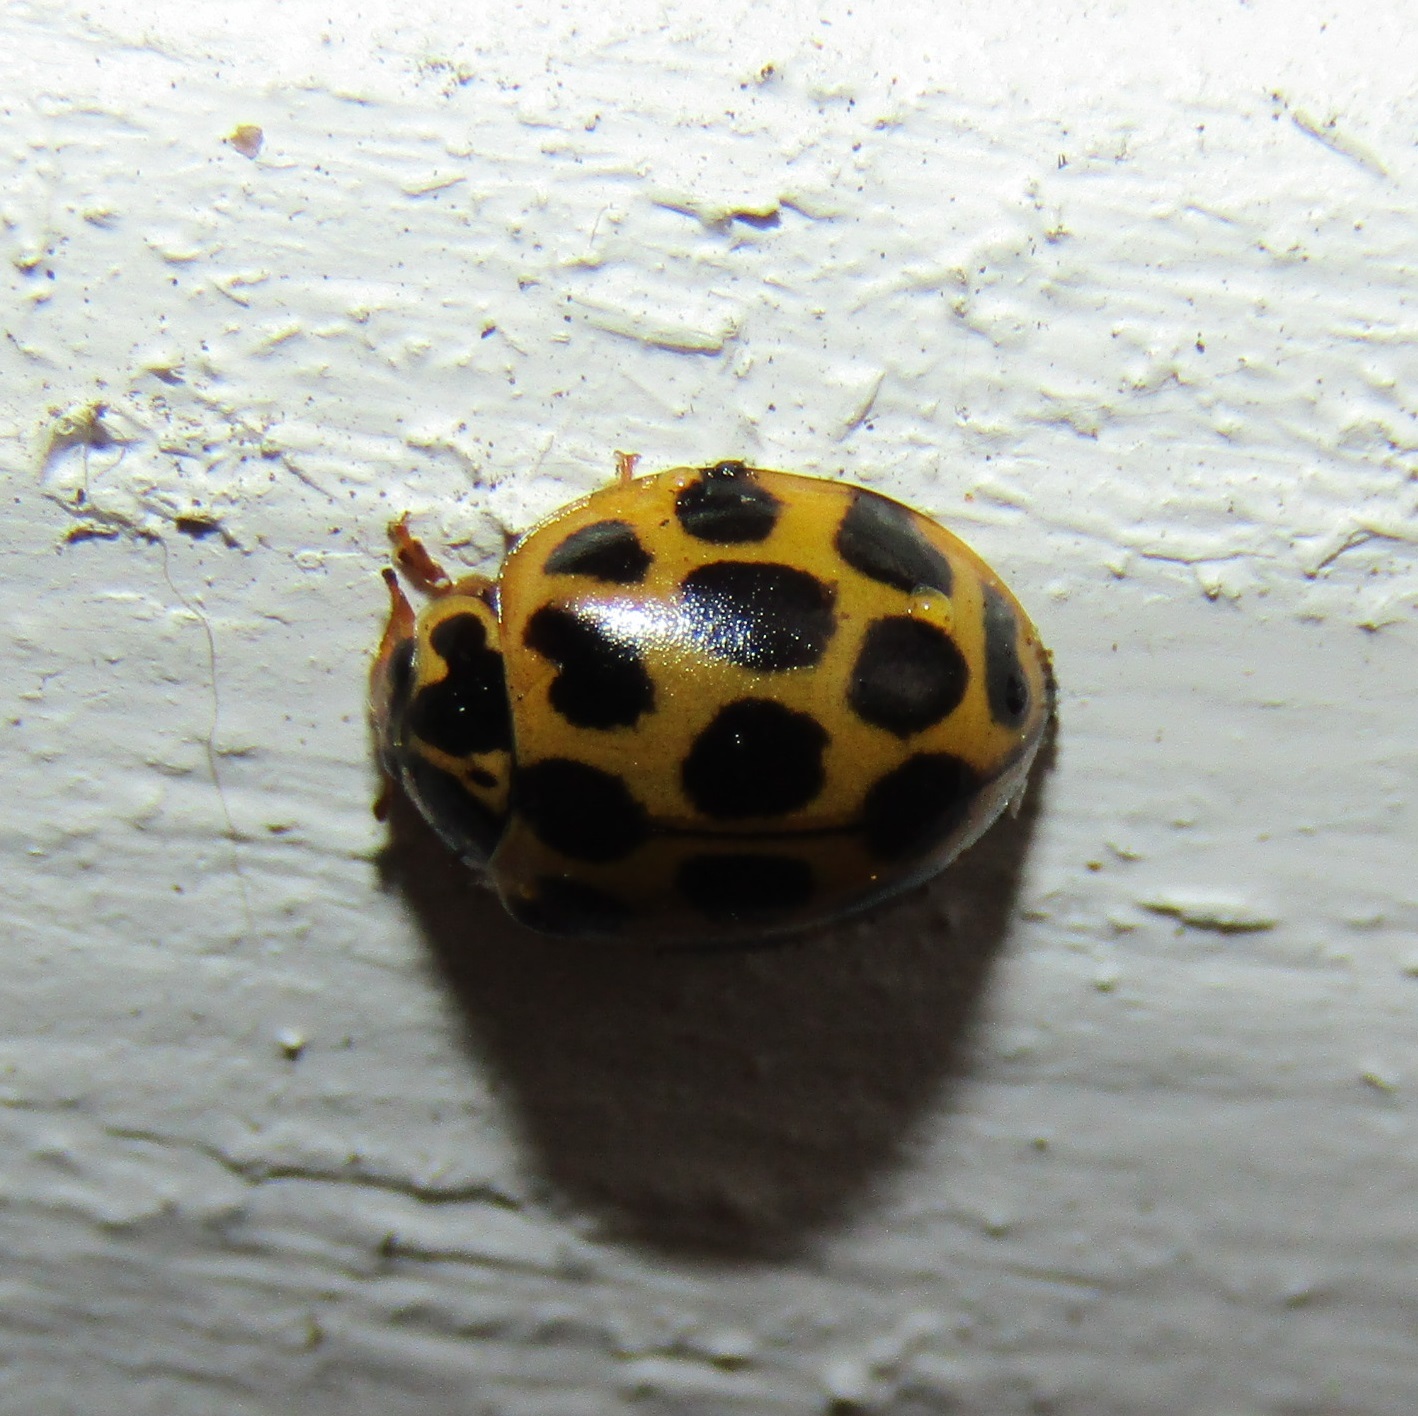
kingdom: Animalia
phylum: Arthropoda
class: Insecta
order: Coleoptera
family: Coccinellidae
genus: Harmonia
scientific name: Harmonia conformis
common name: Common spotted ladybird beetle
